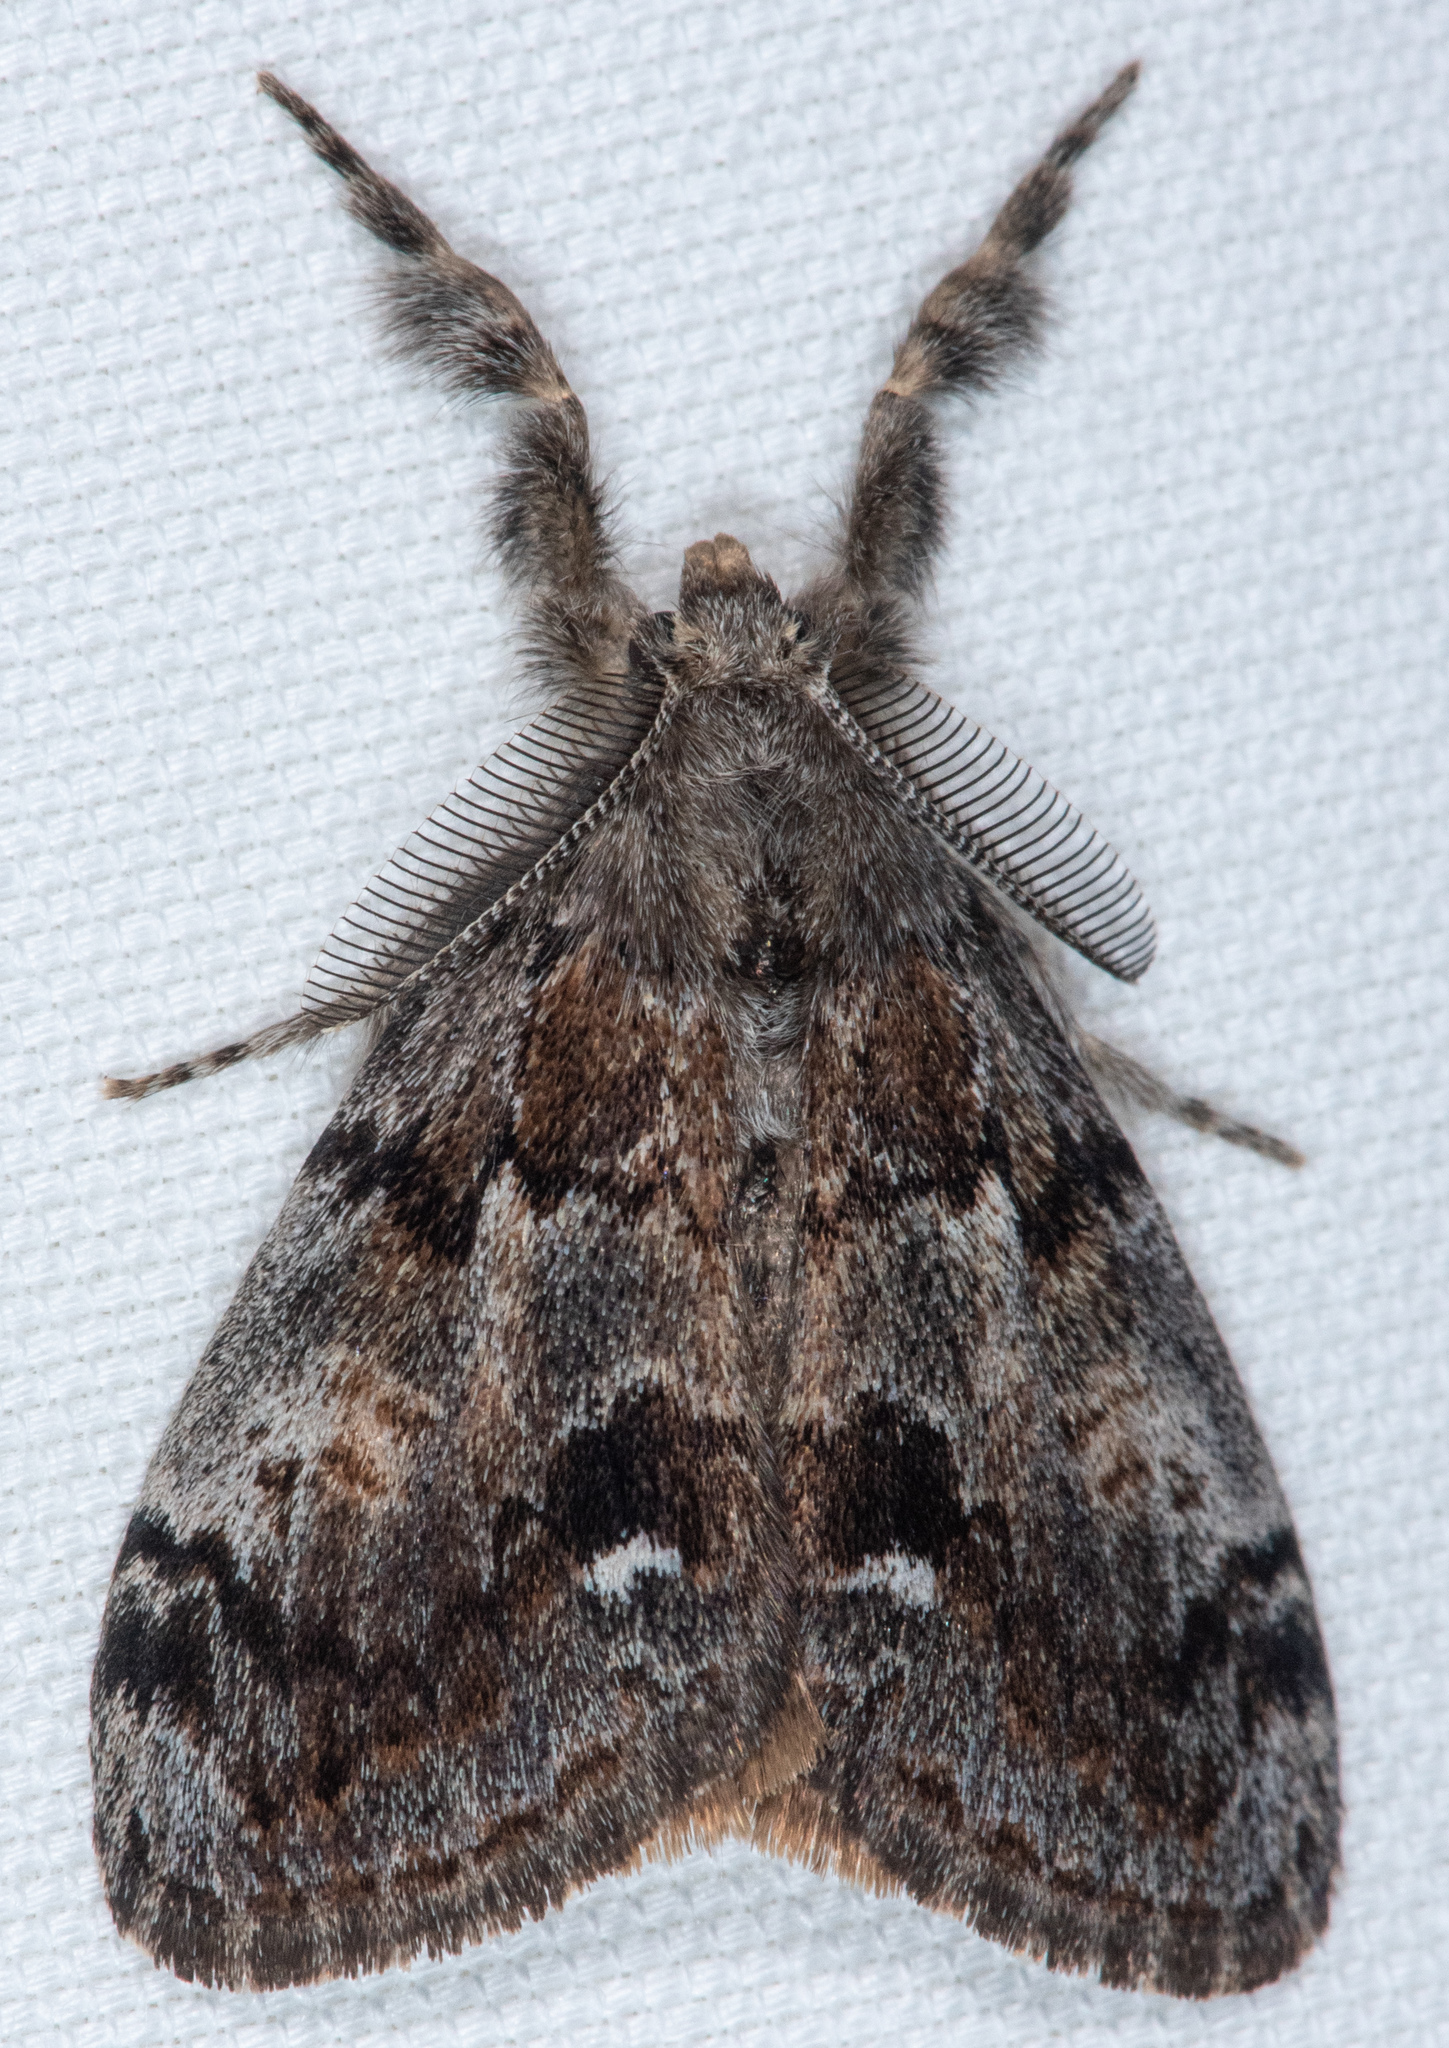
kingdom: Animalia
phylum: Arthropoda
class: Insecta
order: Lepidoptera
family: Erebidae
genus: Orgyia
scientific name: Orgyia vetusta
